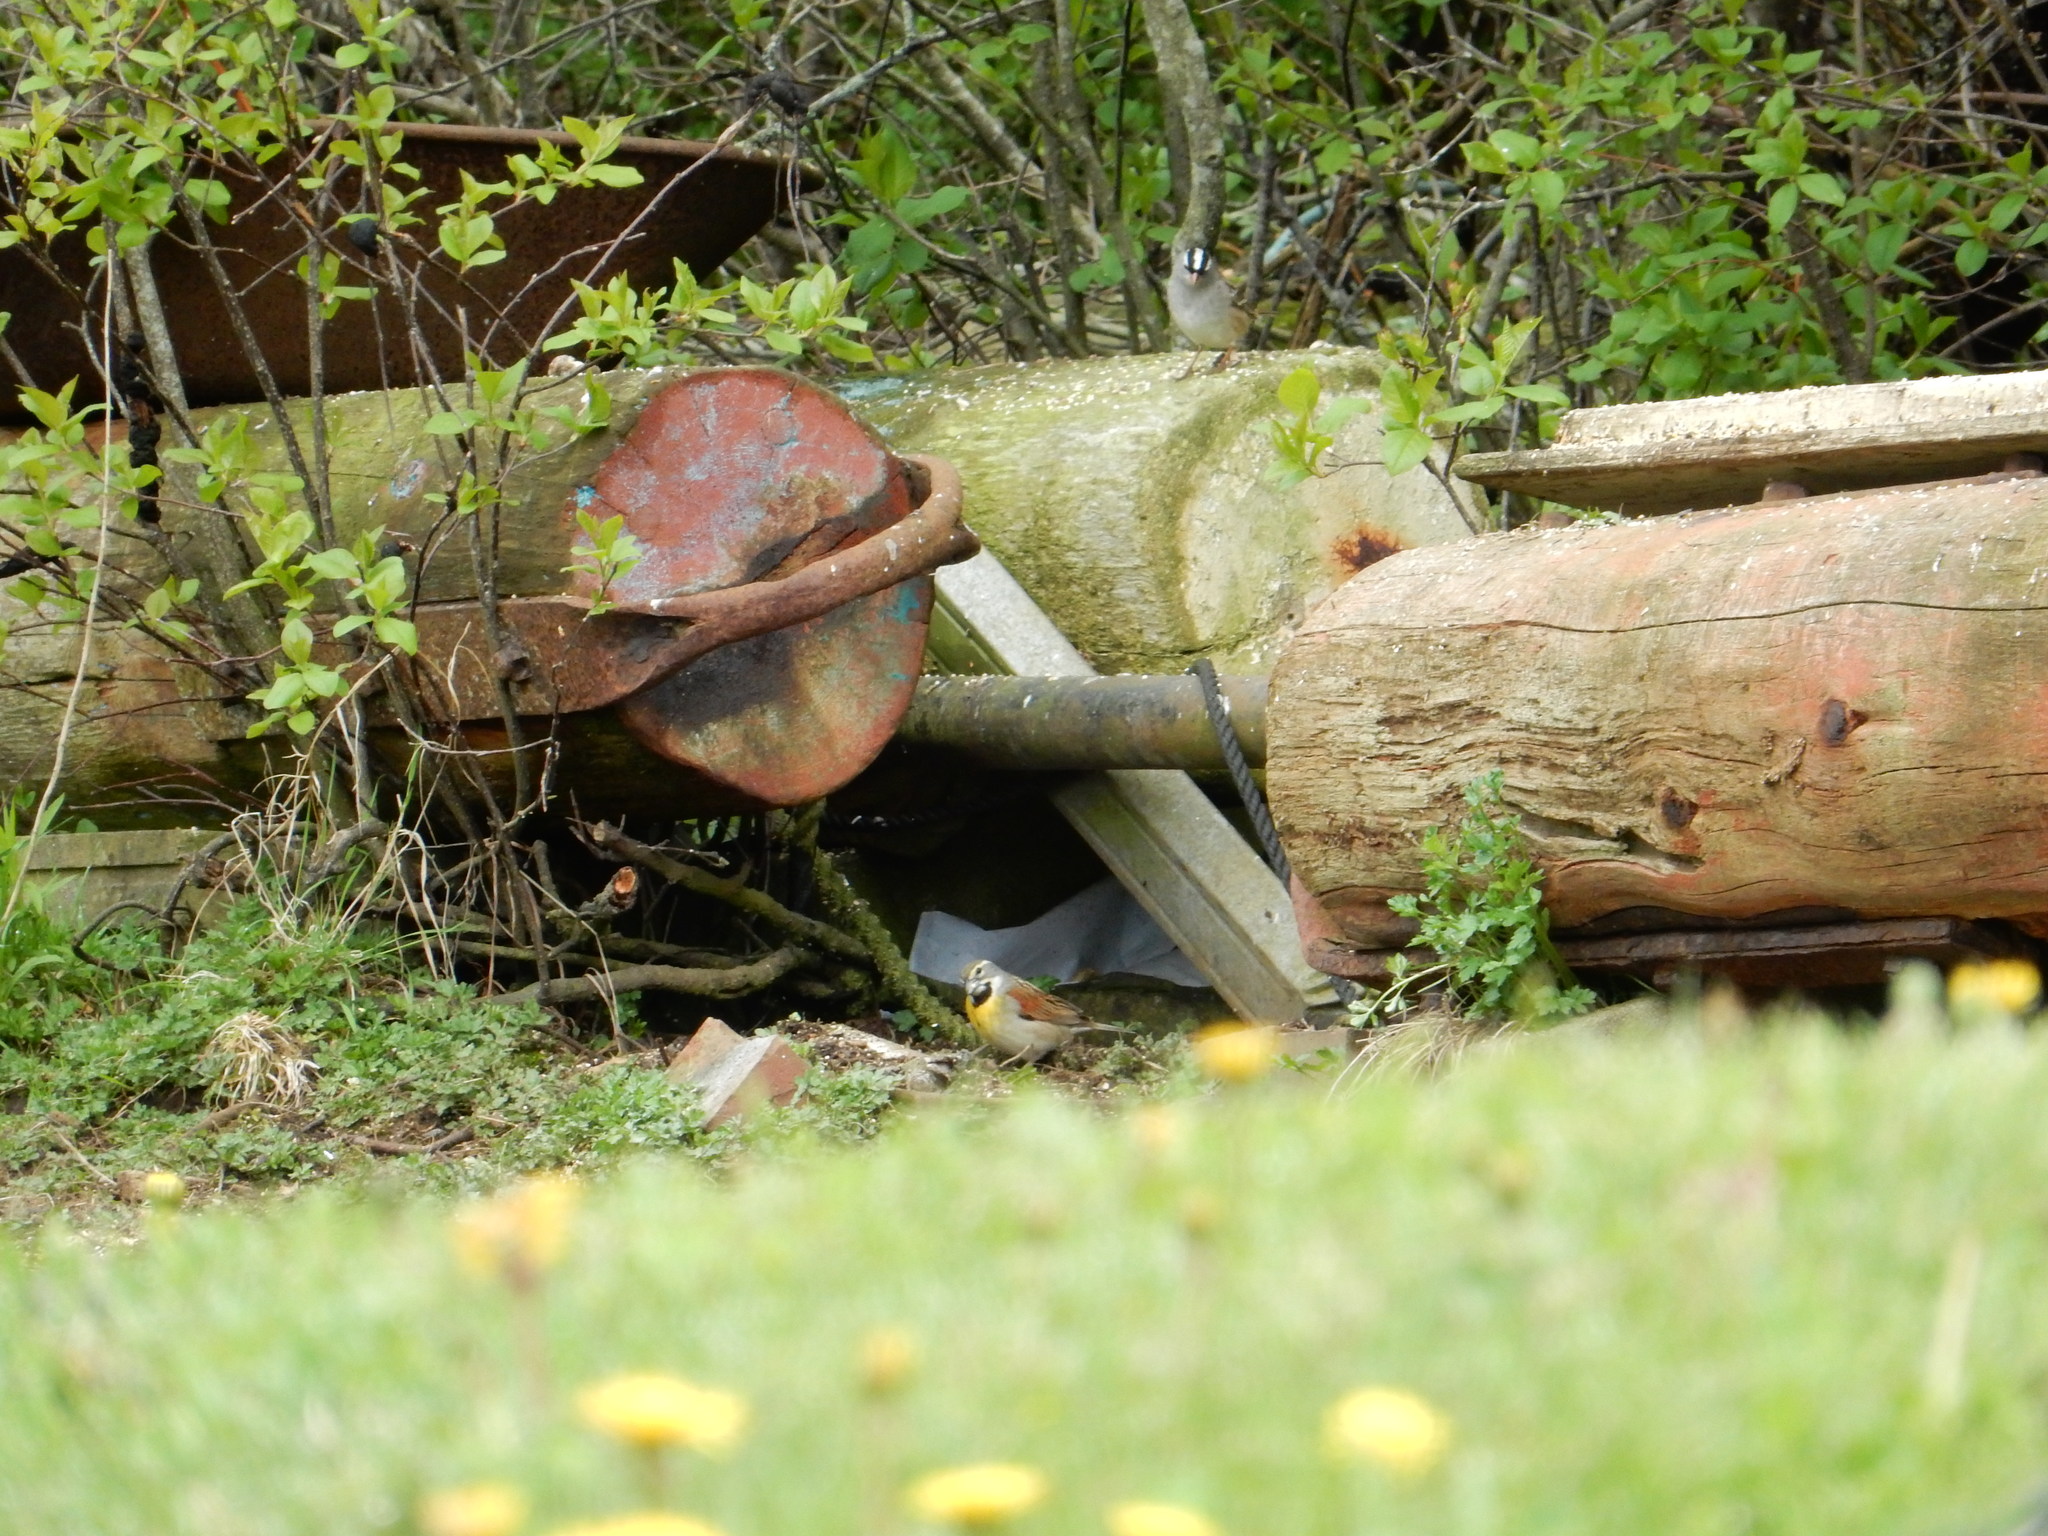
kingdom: Animalia
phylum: Chordata
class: Aves
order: Passeriformes
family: Passerellidae
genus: Zonotrichia
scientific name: Zonotrichia leucophrys
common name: White-crowned sparrow
